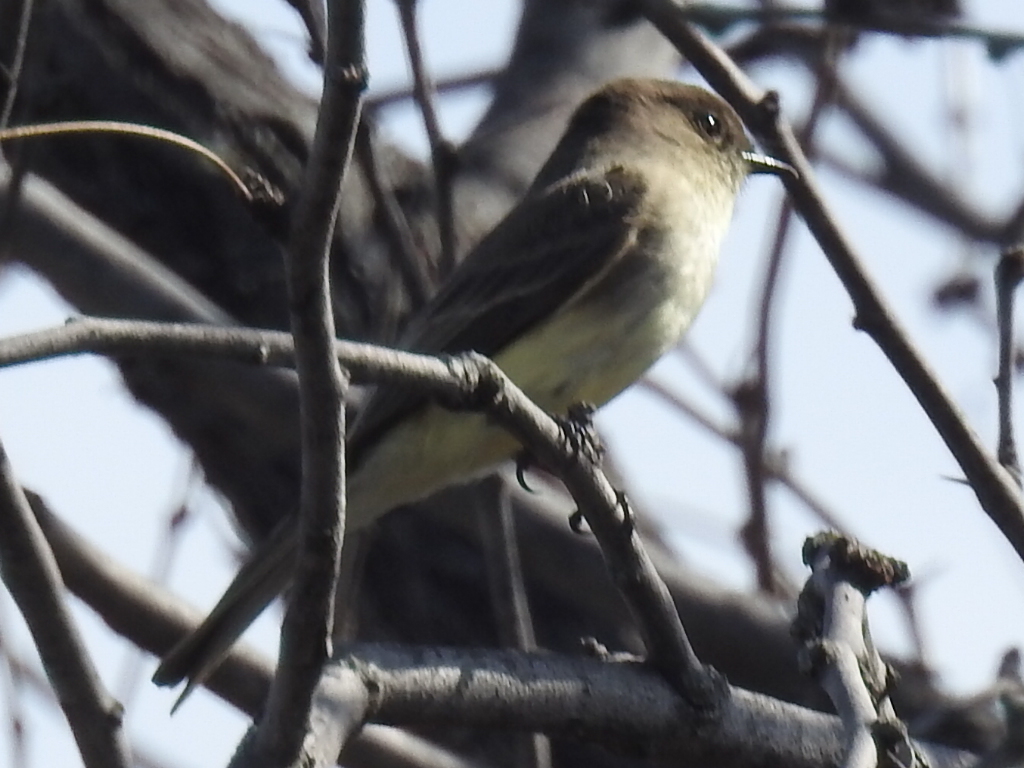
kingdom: Animalia
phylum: Chordata
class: Aves
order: Passeriformes
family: Tyrannidae
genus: Sayornis
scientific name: Sayornis phoebe
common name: Eastern phoebe
